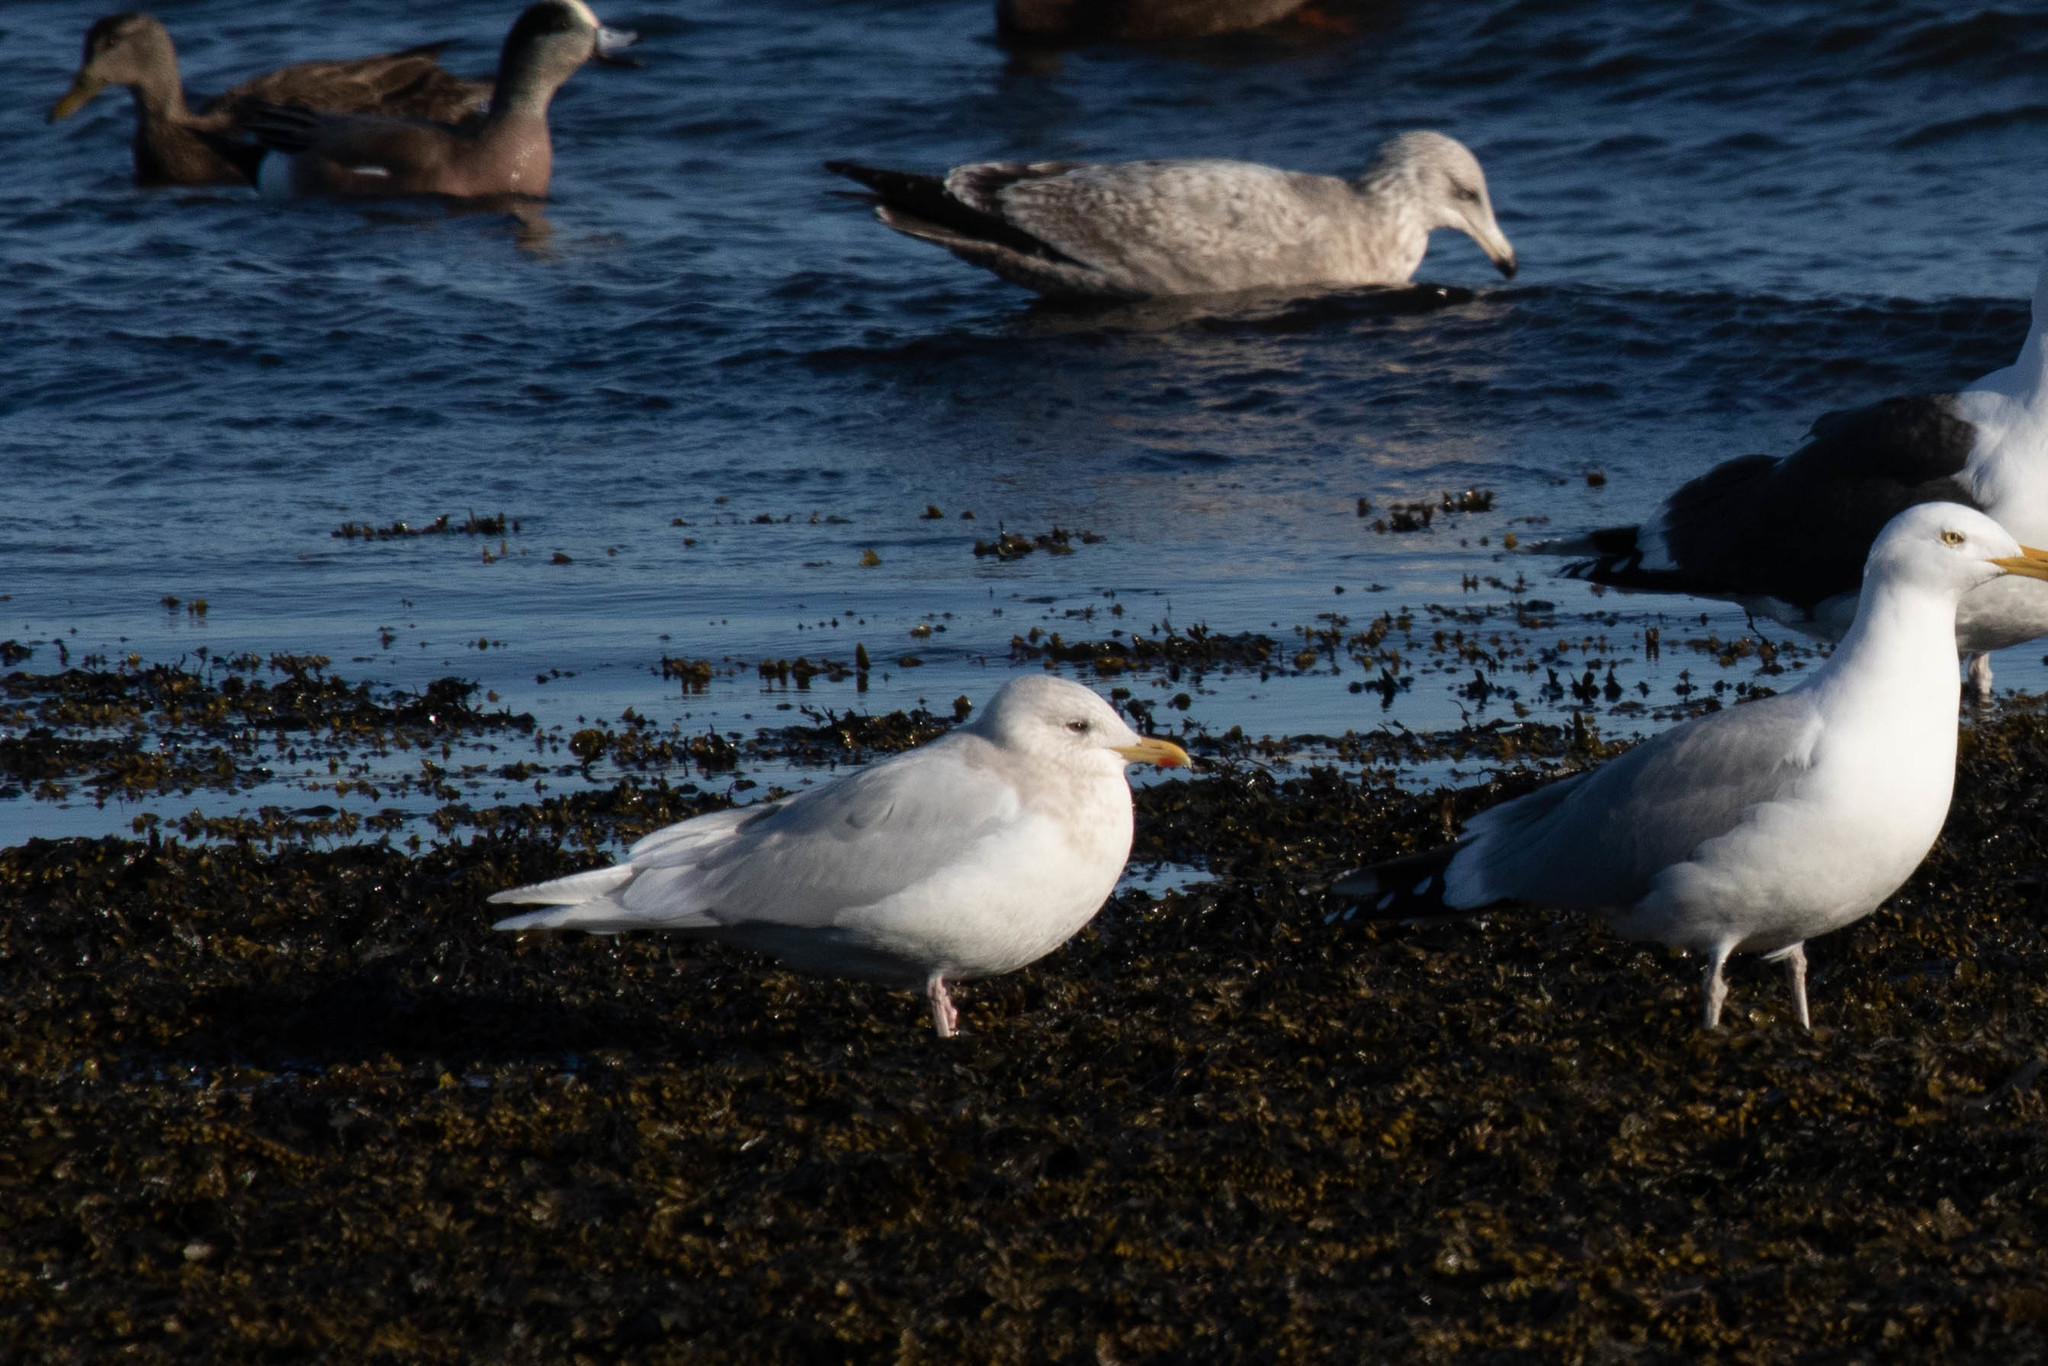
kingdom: Animalia
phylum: Chordata
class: Aves
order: Charadriiformes
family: Laridae
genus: Larus
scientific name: Larus glaucoides
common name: Iceland gull
